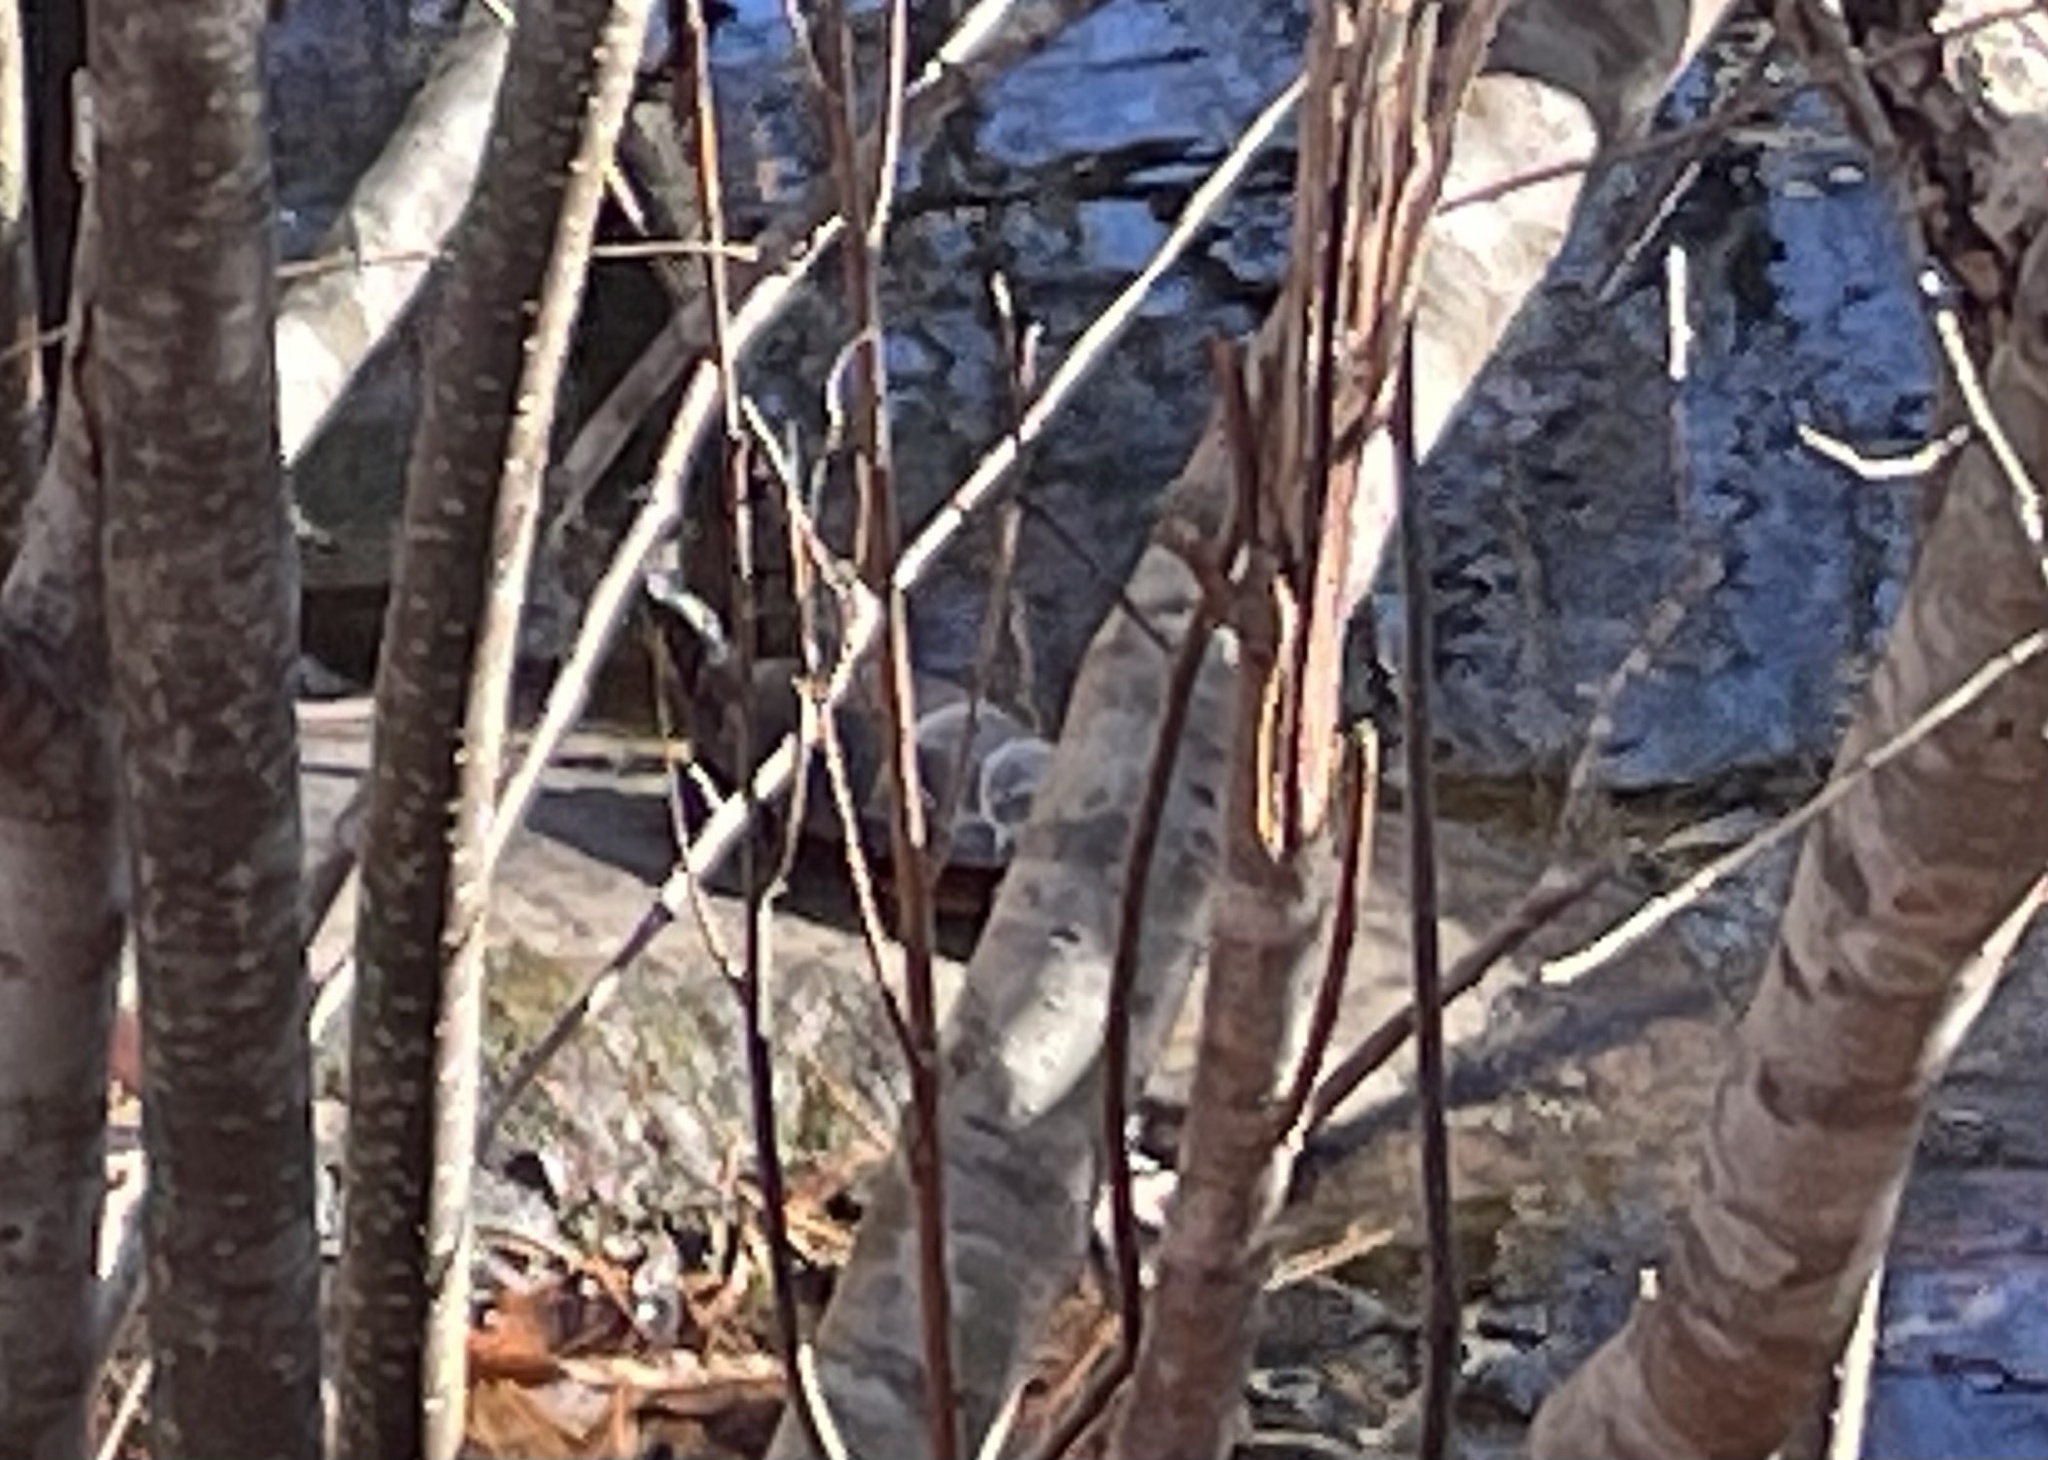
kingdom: Animalia
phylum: Chordata
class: Testudines
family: Emydidae
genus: Chrysemys
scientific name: Chrysemys picta
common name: Painted turtle
